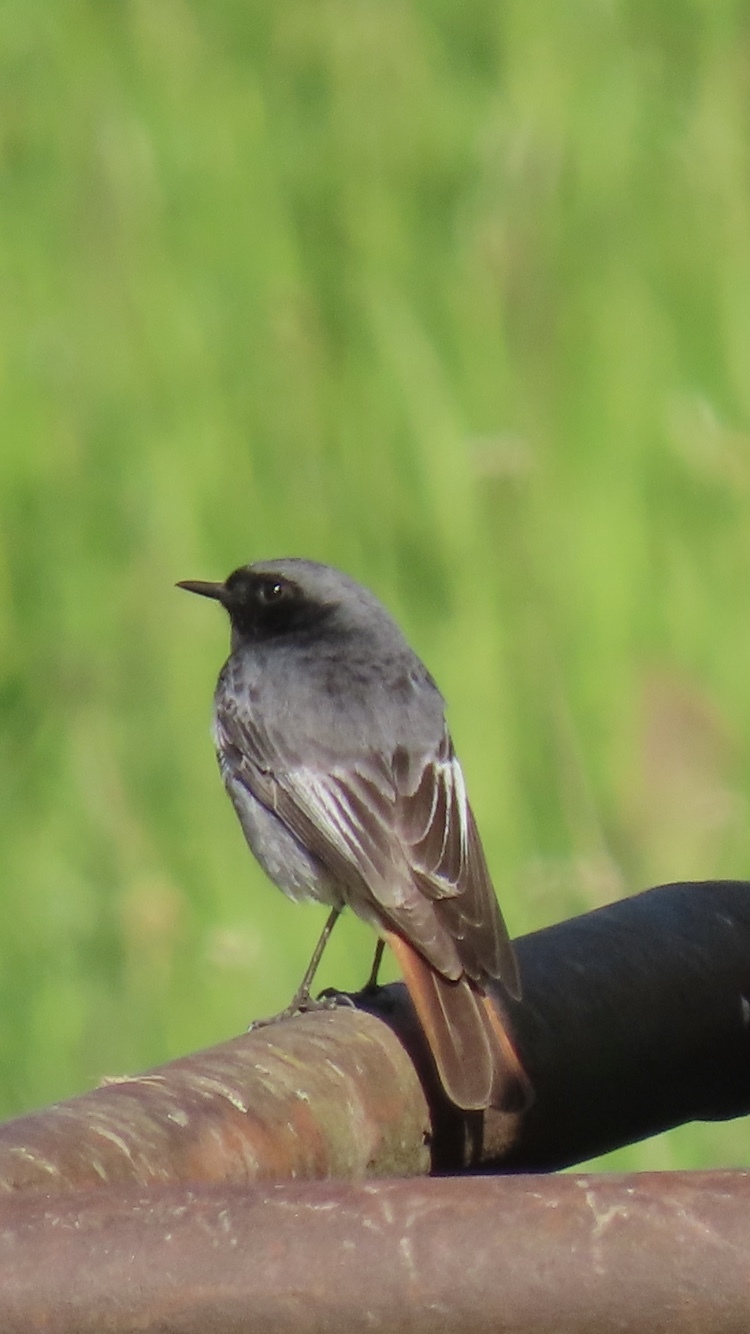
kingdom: Animalia
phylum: Chordata
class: Aves
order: Passeriformes
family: Muscicapidae
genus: Phoenicurus
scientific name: Phoenicurus ochruros
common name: Black redstart
